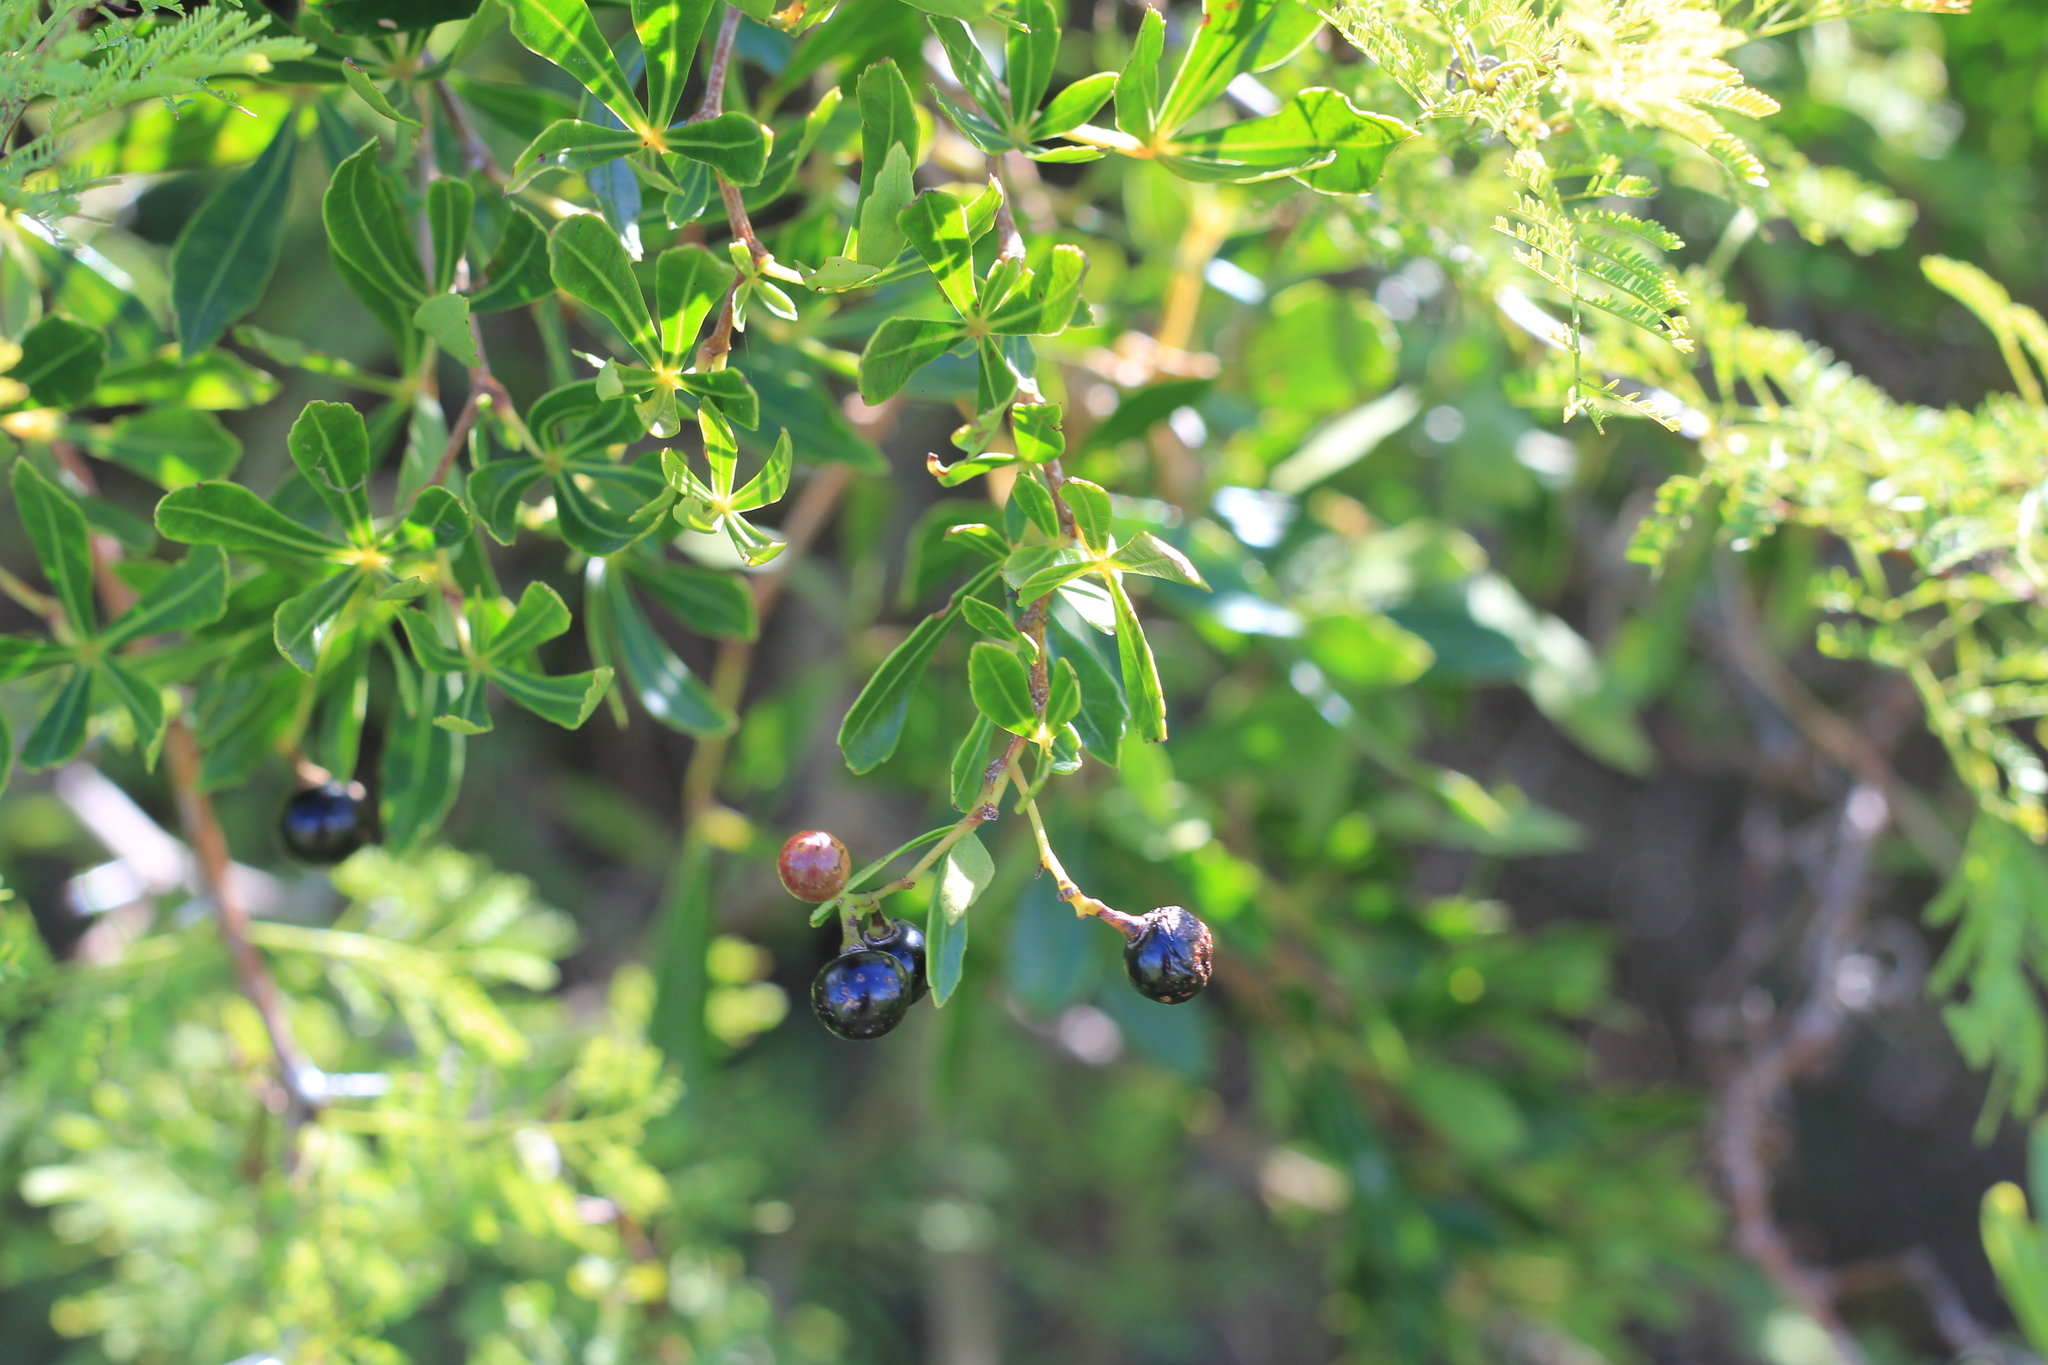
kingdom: Plantae
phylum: Tracheophyta
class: Magnoliopsida
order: Vitales
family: Vitaceae
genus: Clematicissus
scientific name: Clematicissus striata
